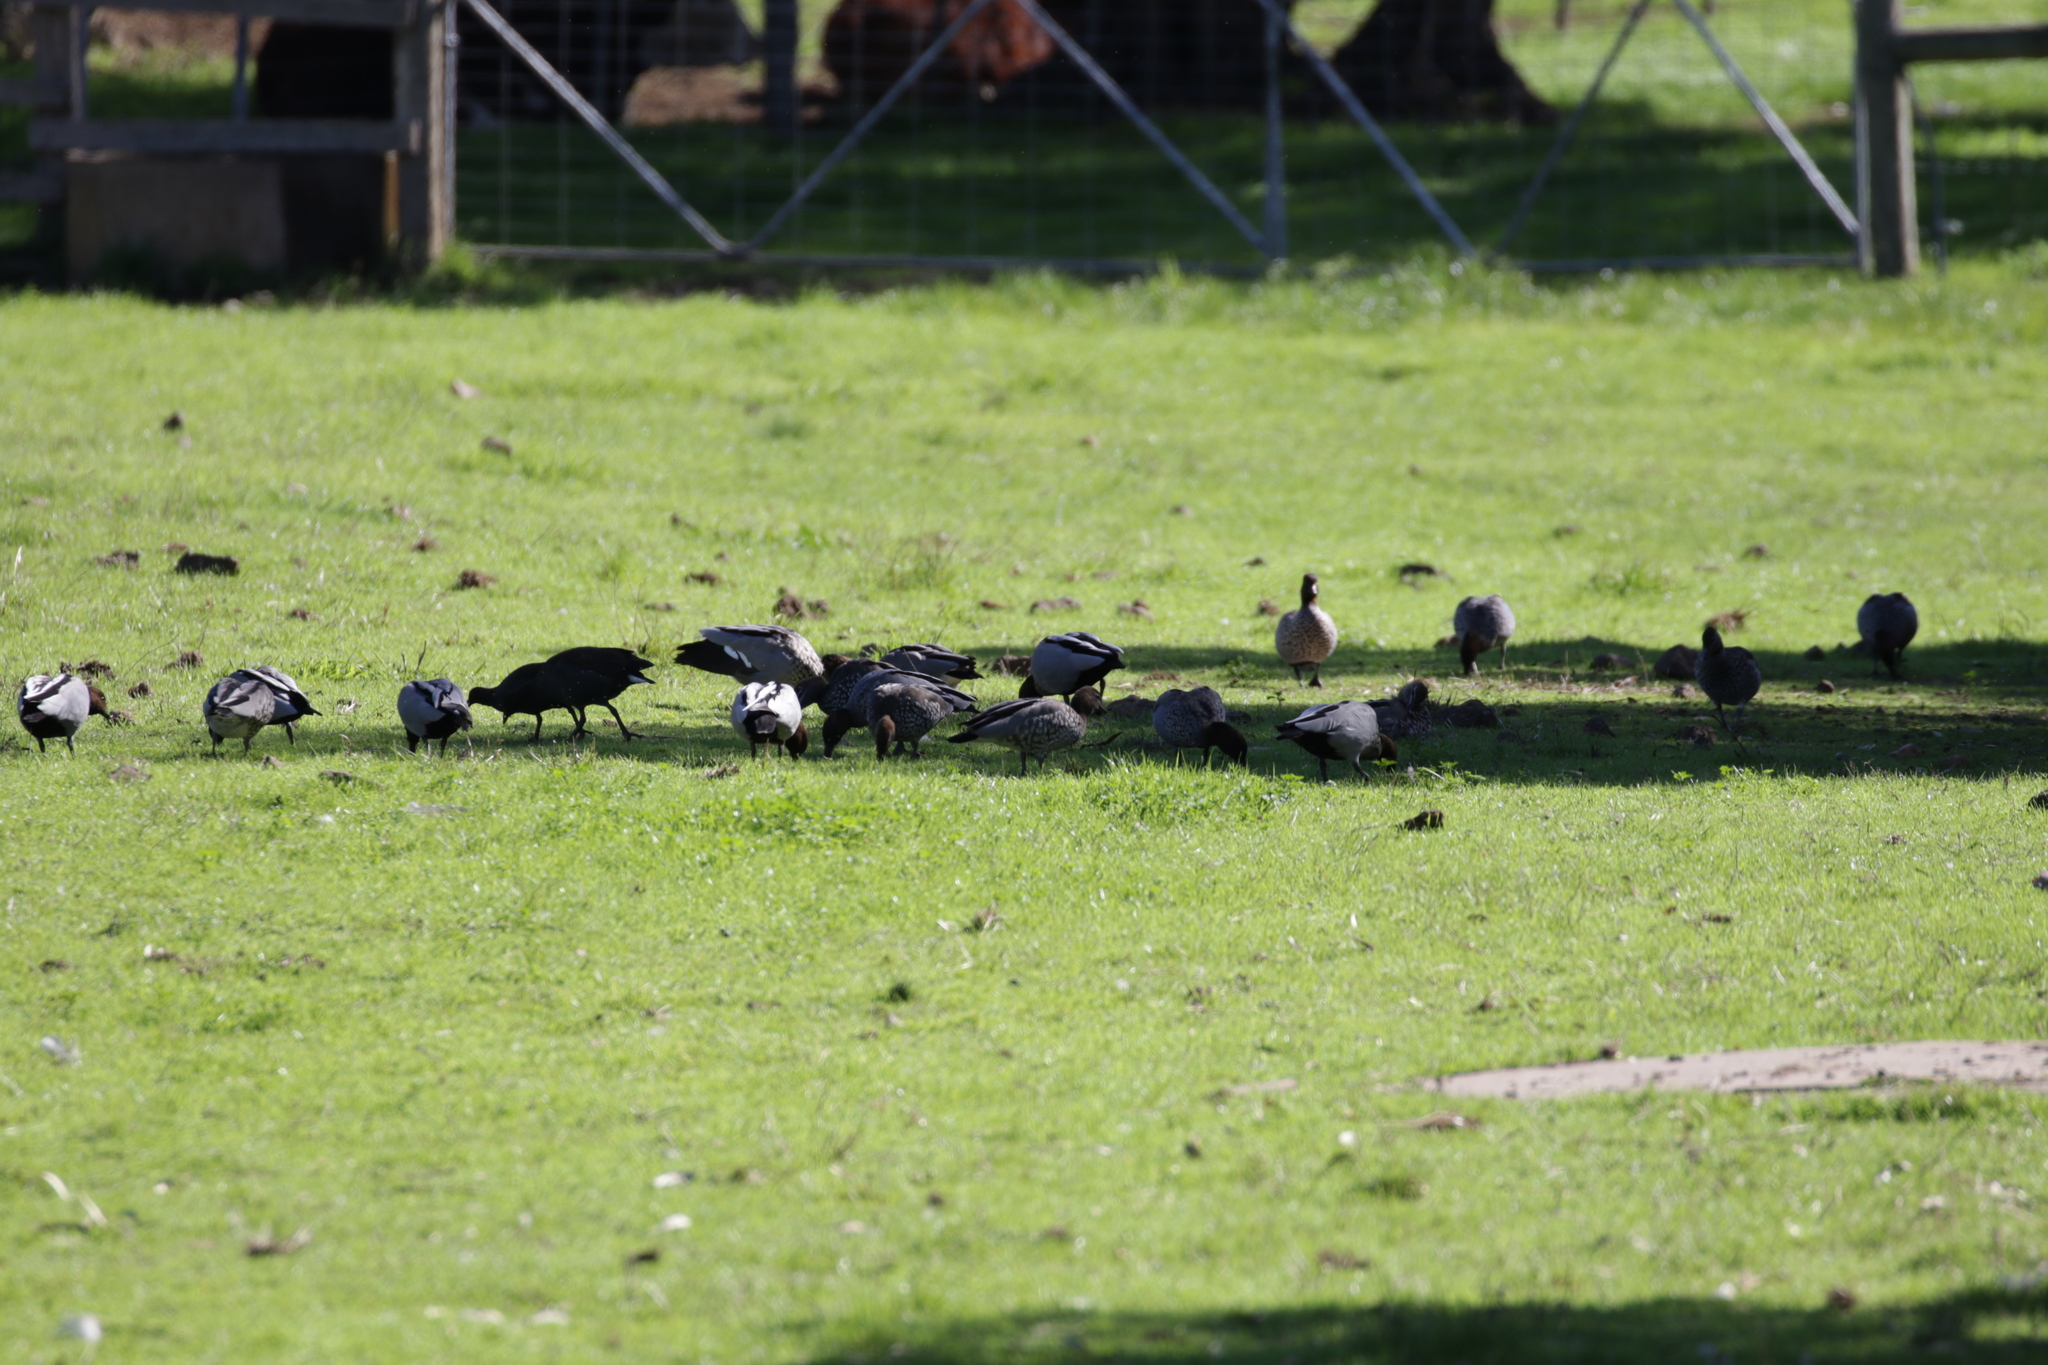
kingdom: Animalia
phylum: Chordata
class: Aves
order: Anseriformes
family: Anatidae
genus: Chenonetta
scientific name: Chenonetta jubata
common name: Maned duck
